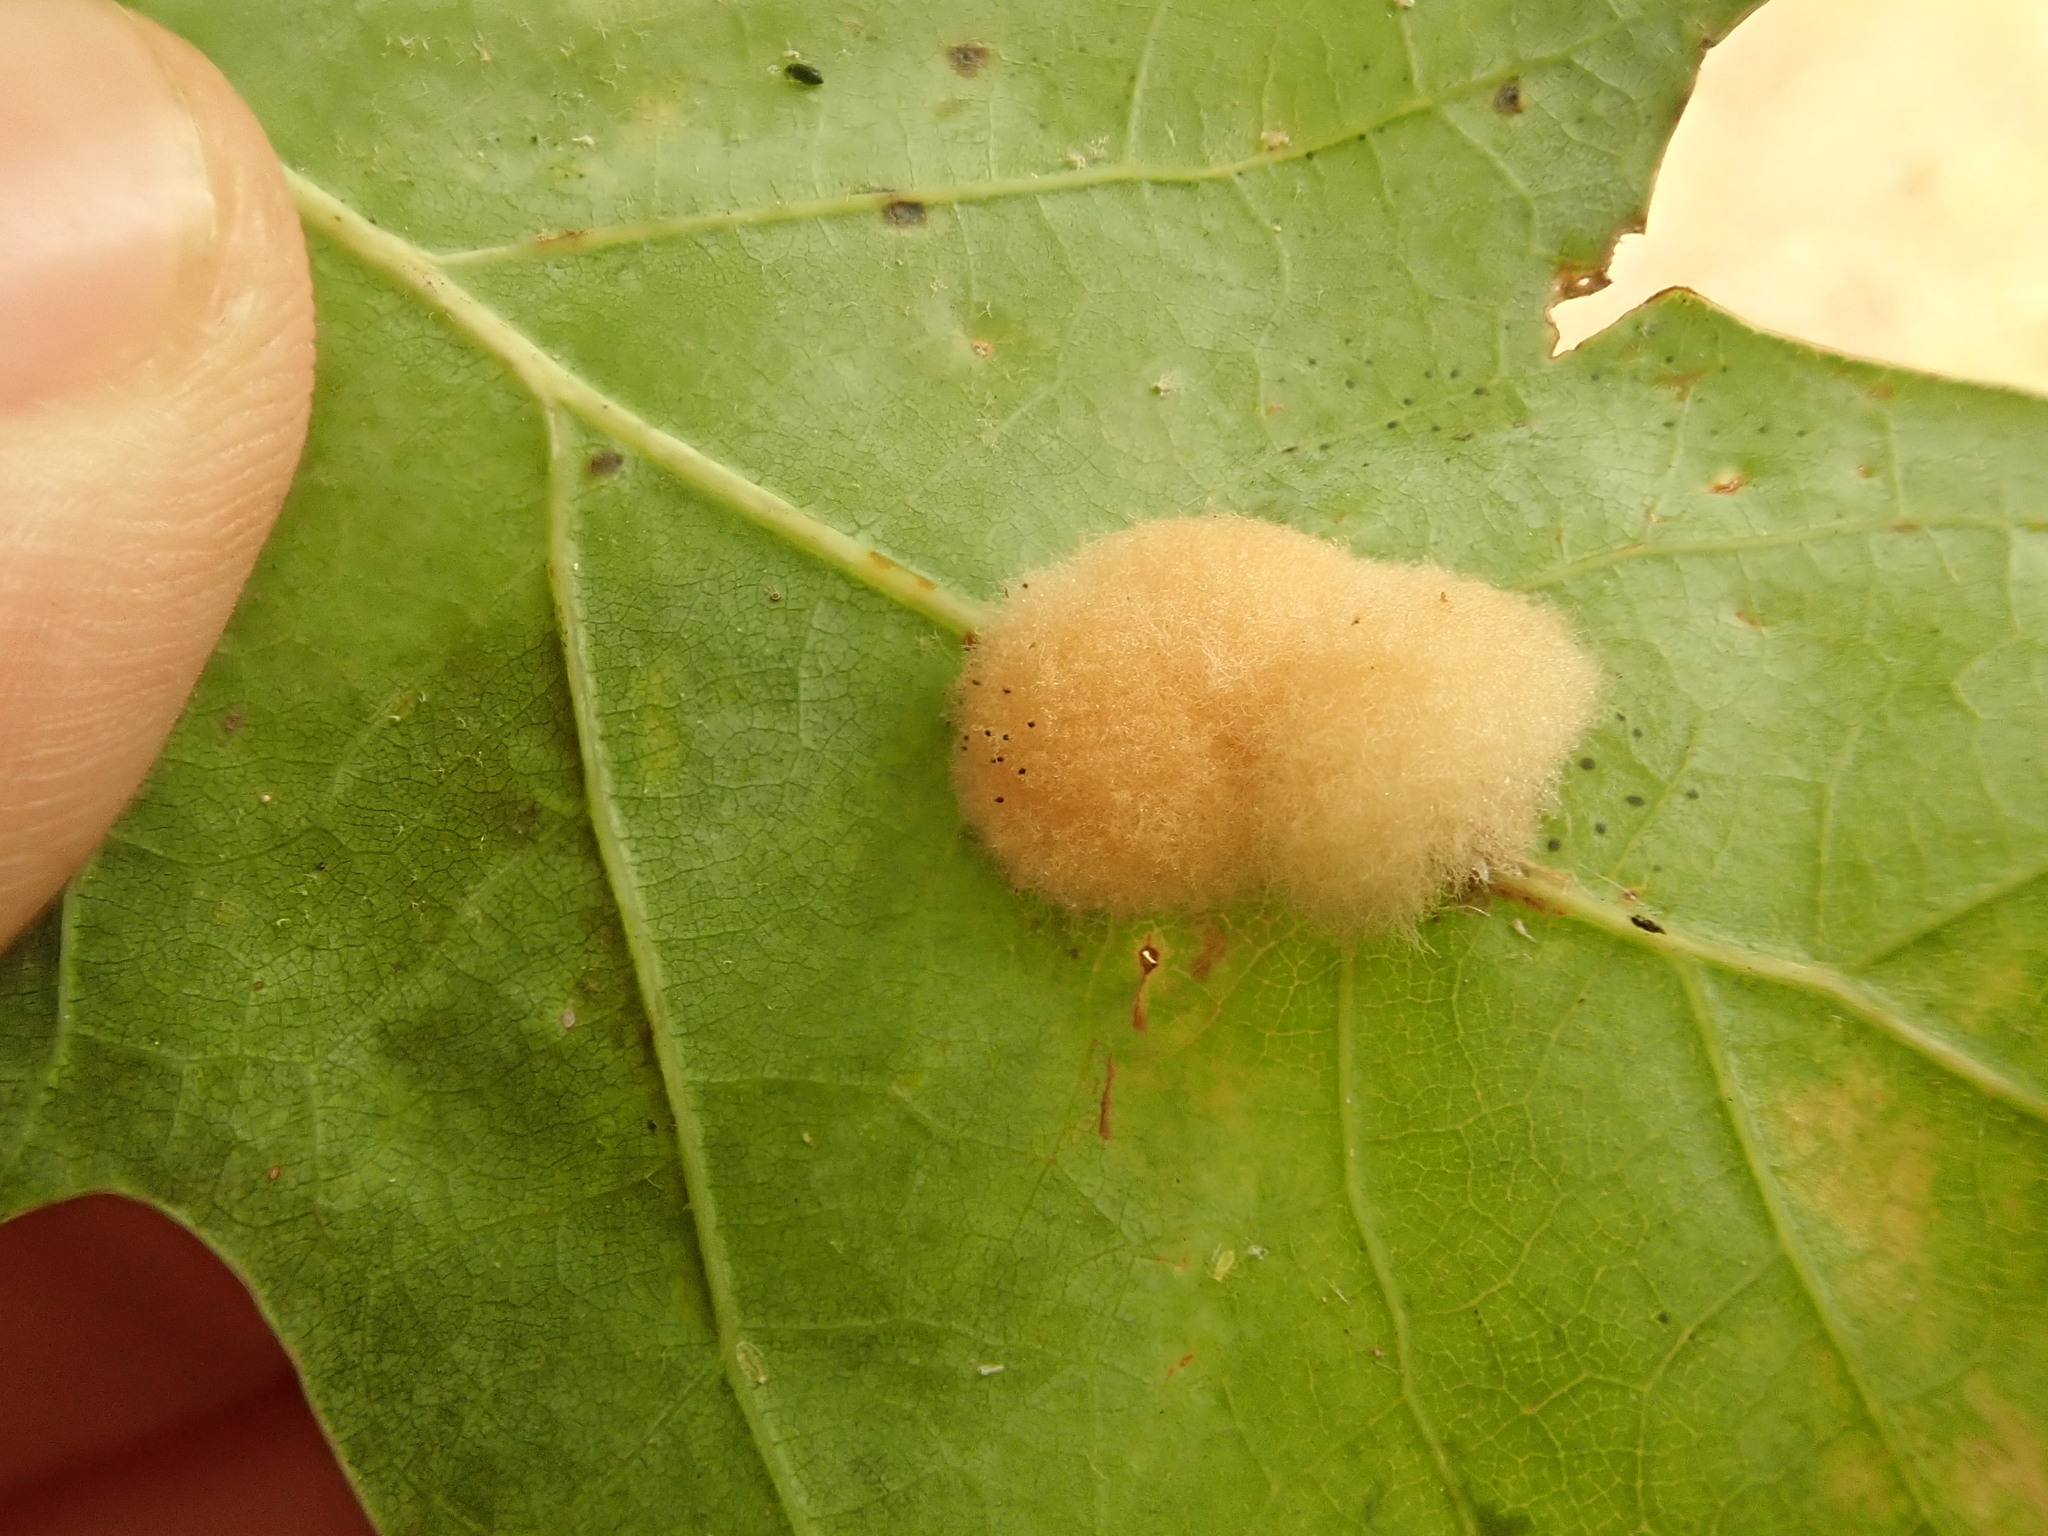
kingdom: Animalia
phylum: Arthropoda
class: Insecta
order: Hymenoptera
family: Cynipidae
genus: Callirhytis
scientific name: Callirhytis
